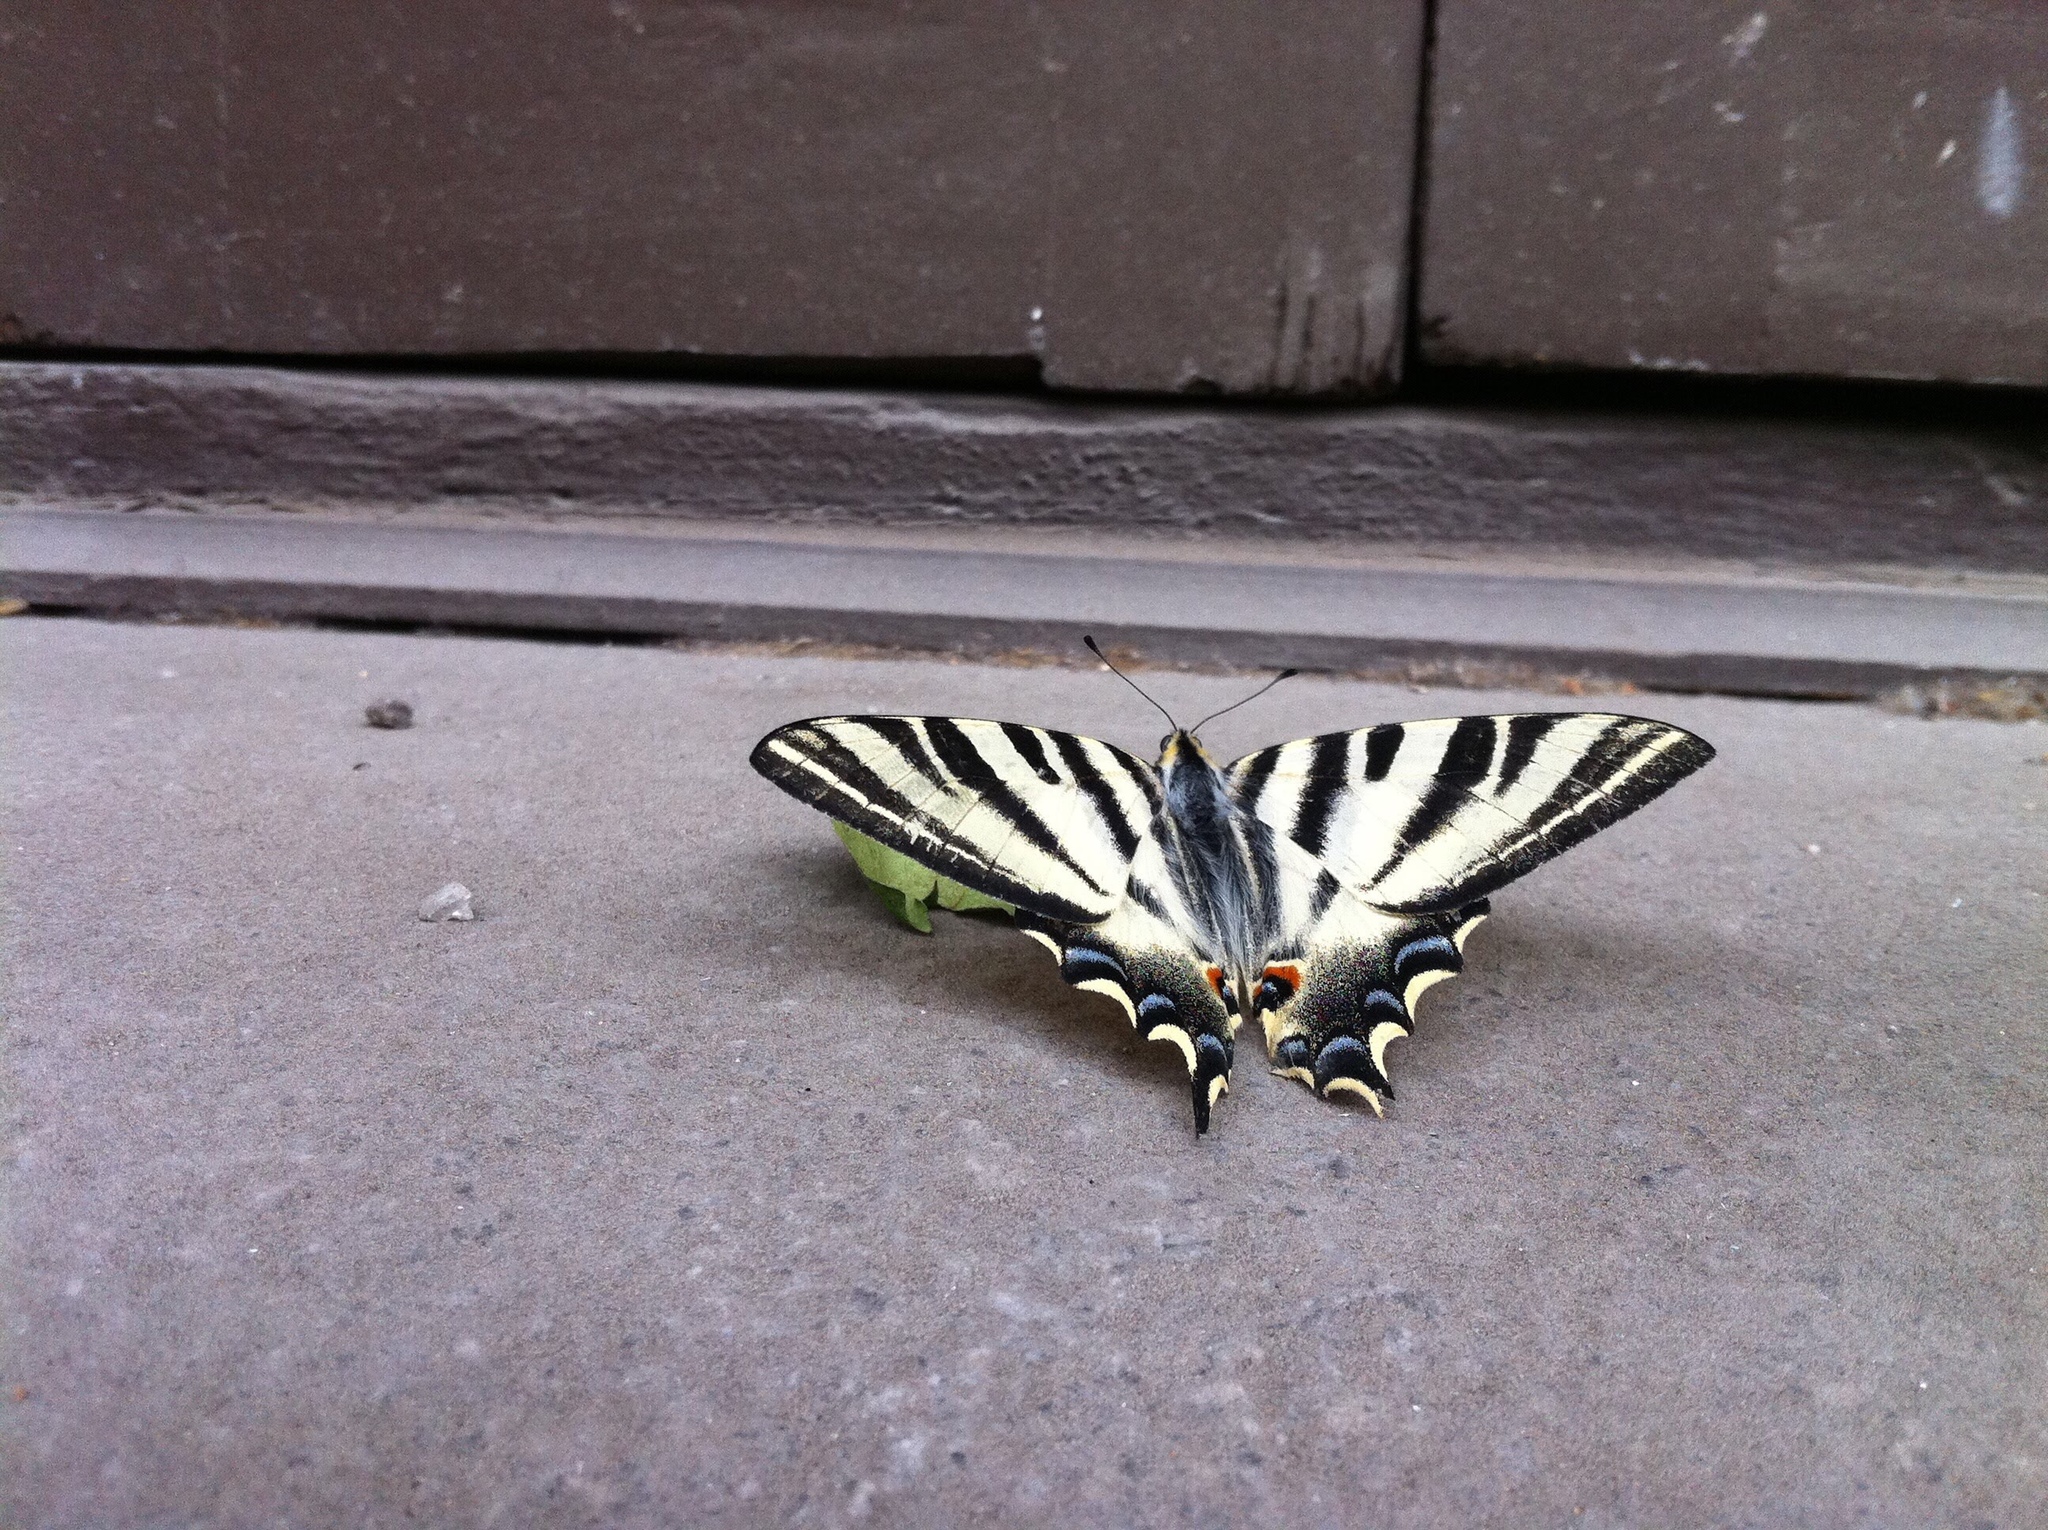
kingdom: Animalia
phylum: Arthropoda
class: Insecta
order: Lepidoptera
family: Papilionidae
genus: Iphiclides
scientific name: Iphiclides feisthamelii
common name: Iberian scarce swallowtail
